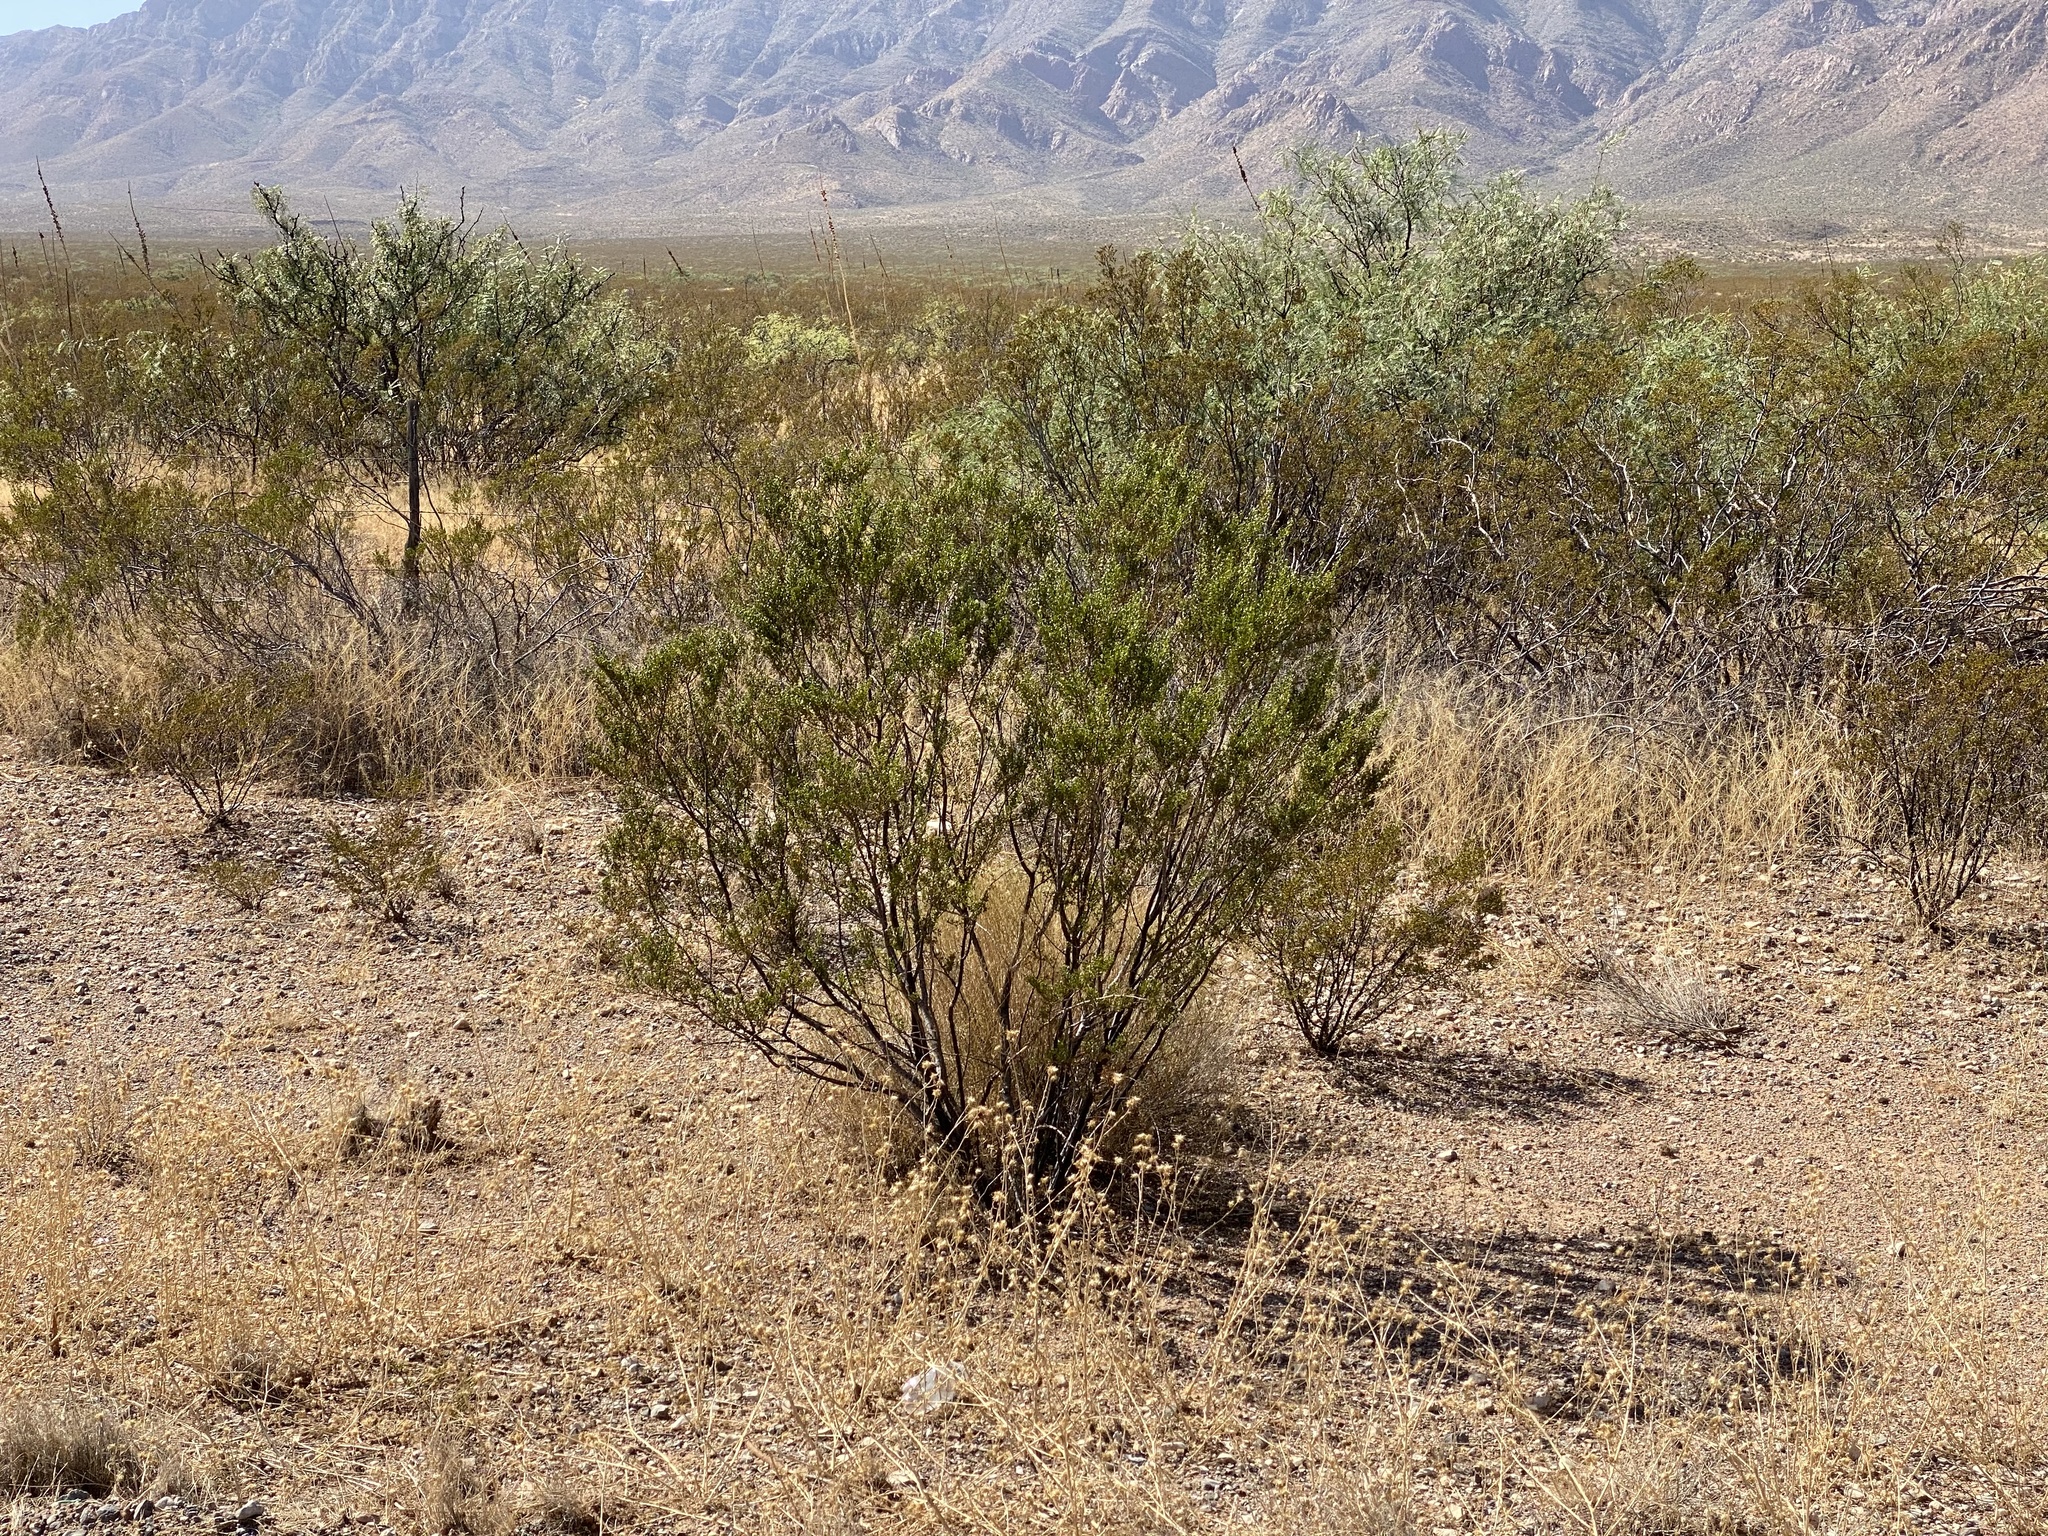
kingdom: Plantae
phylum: Tracheophyta
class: Magnoliopsida
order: Zygophyllales
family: Zygophyllaceae
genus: Larrea
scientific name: Larrea tridentata
